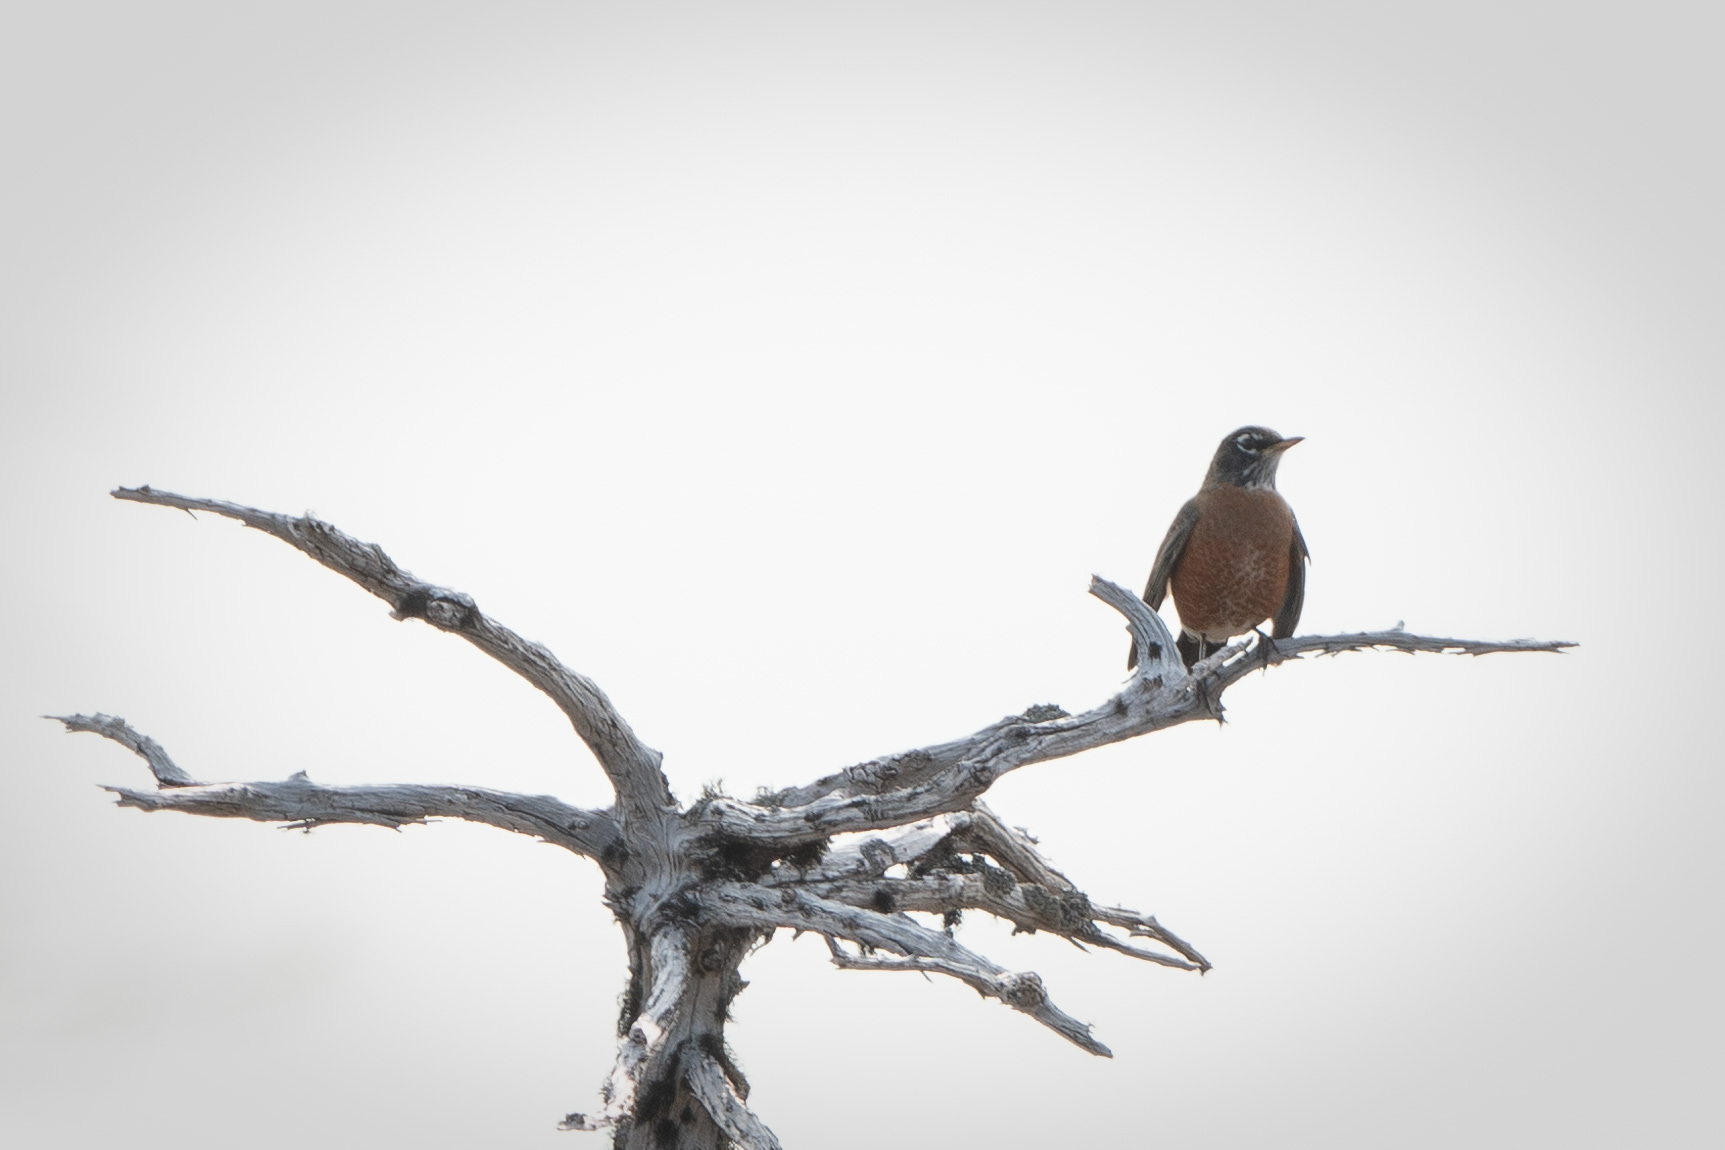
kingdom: Animalia
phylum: Chordata
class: Aves
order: Passeriformes
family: Turdidae
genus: Turdus
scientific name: Turdus migratorius
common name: American robin
